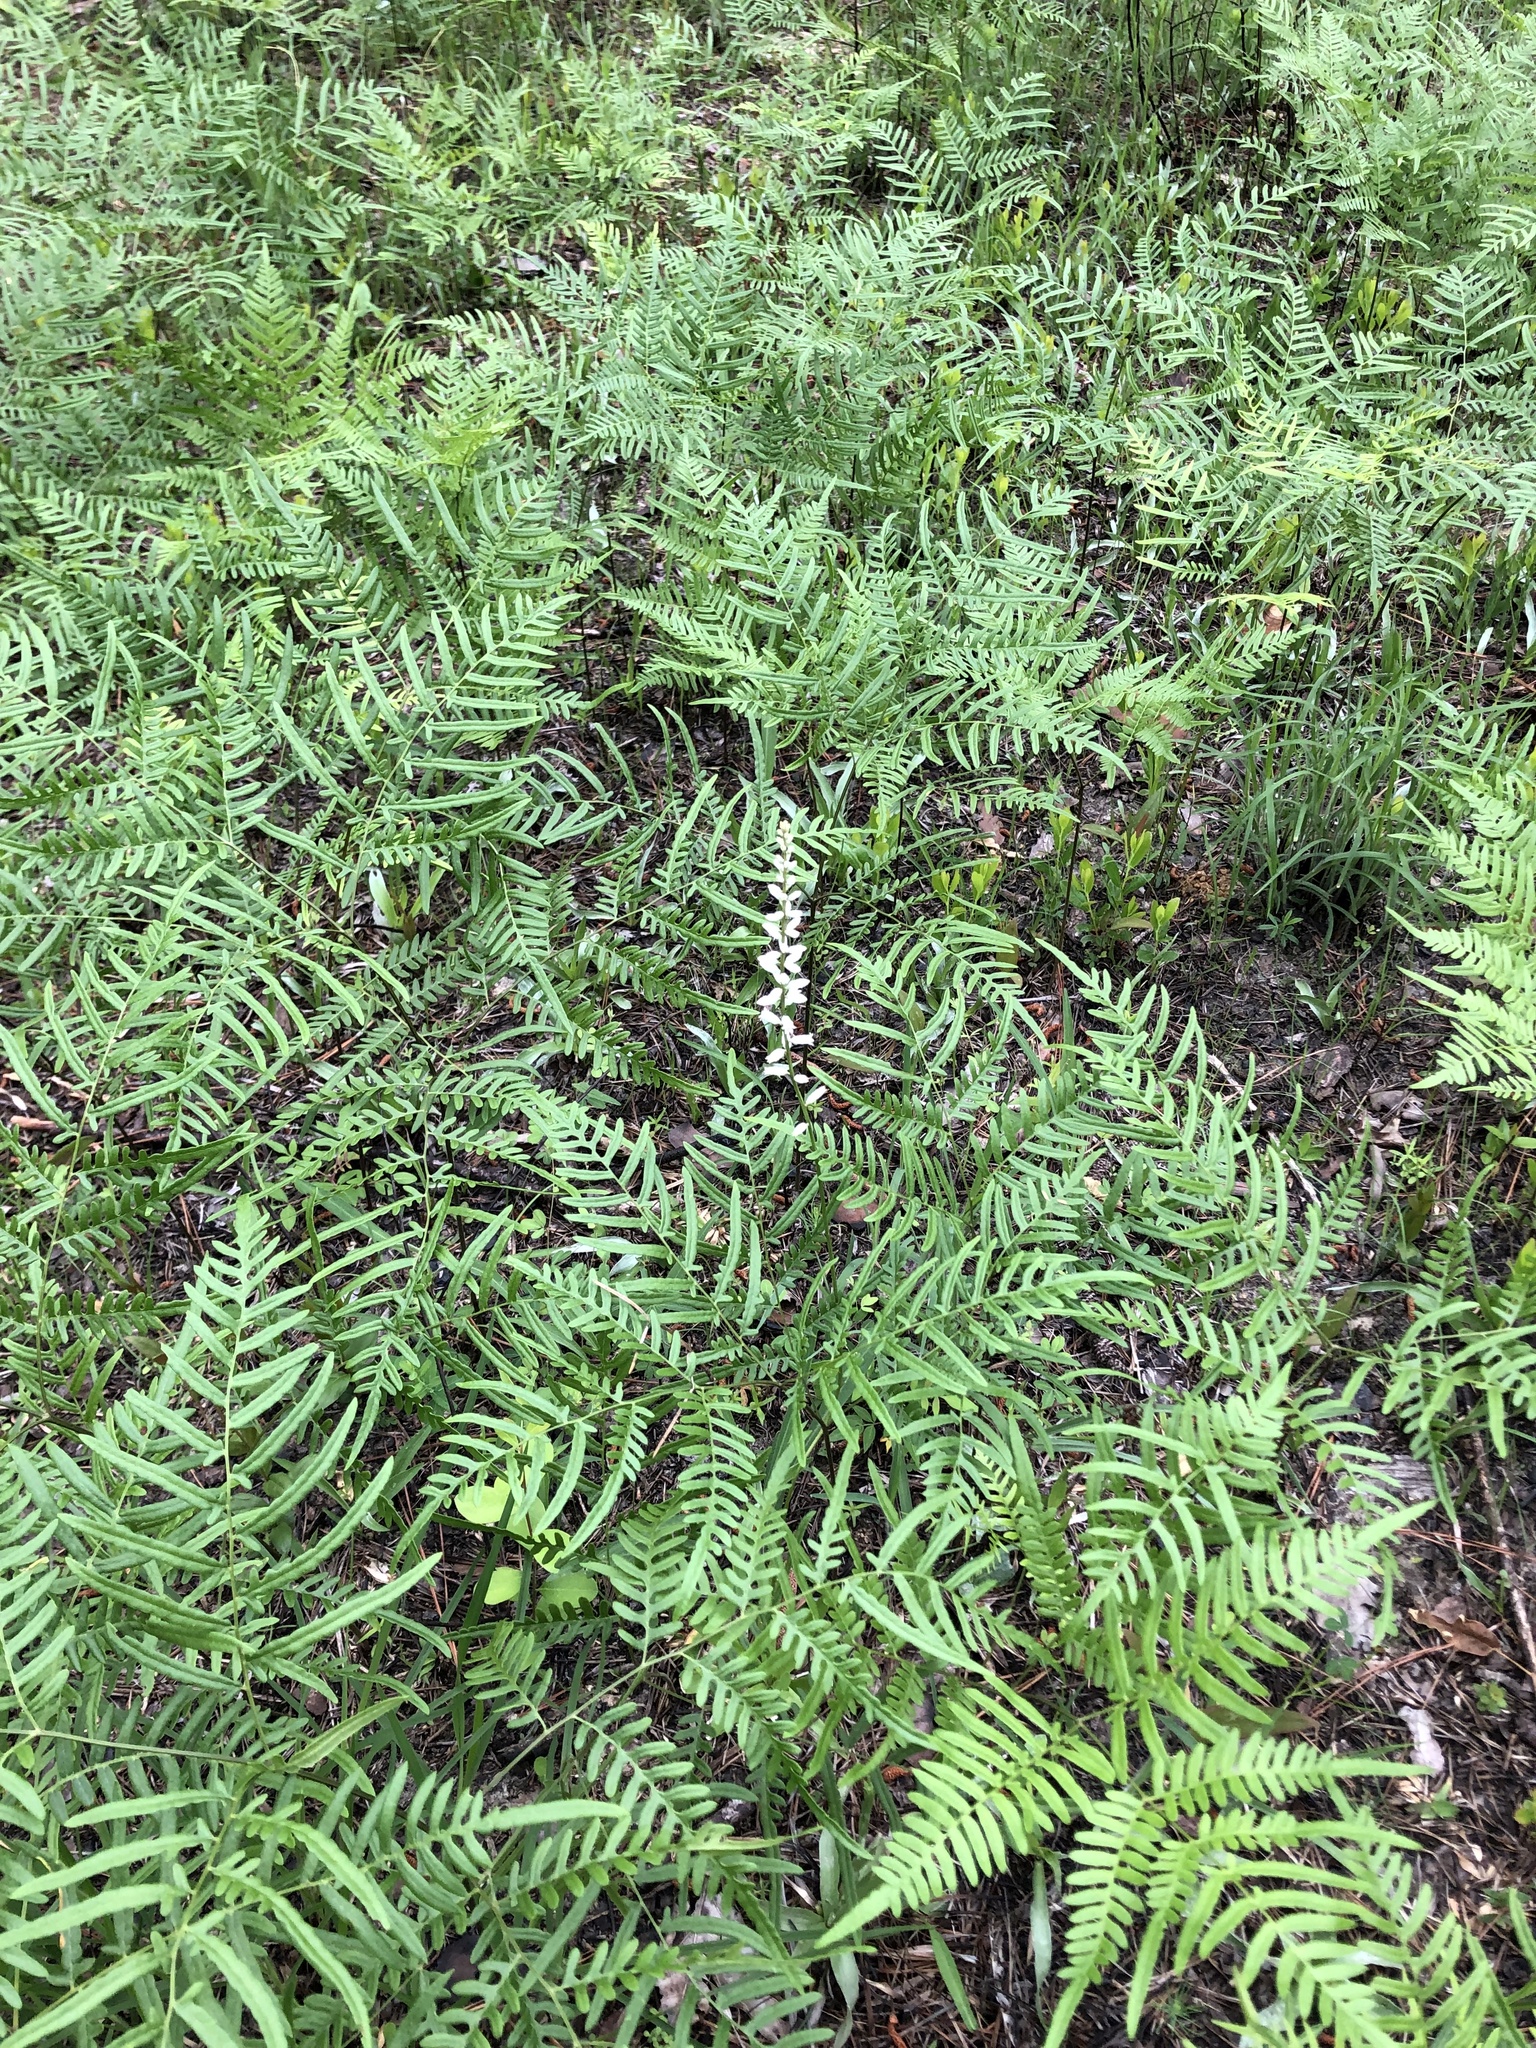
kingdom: Plantae
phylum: Tracheophyta
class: Liliopsida
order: Dioscoreales
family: Nartheciaceae
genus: Aletris
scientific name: Aletris farinosa
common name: Colicroot
